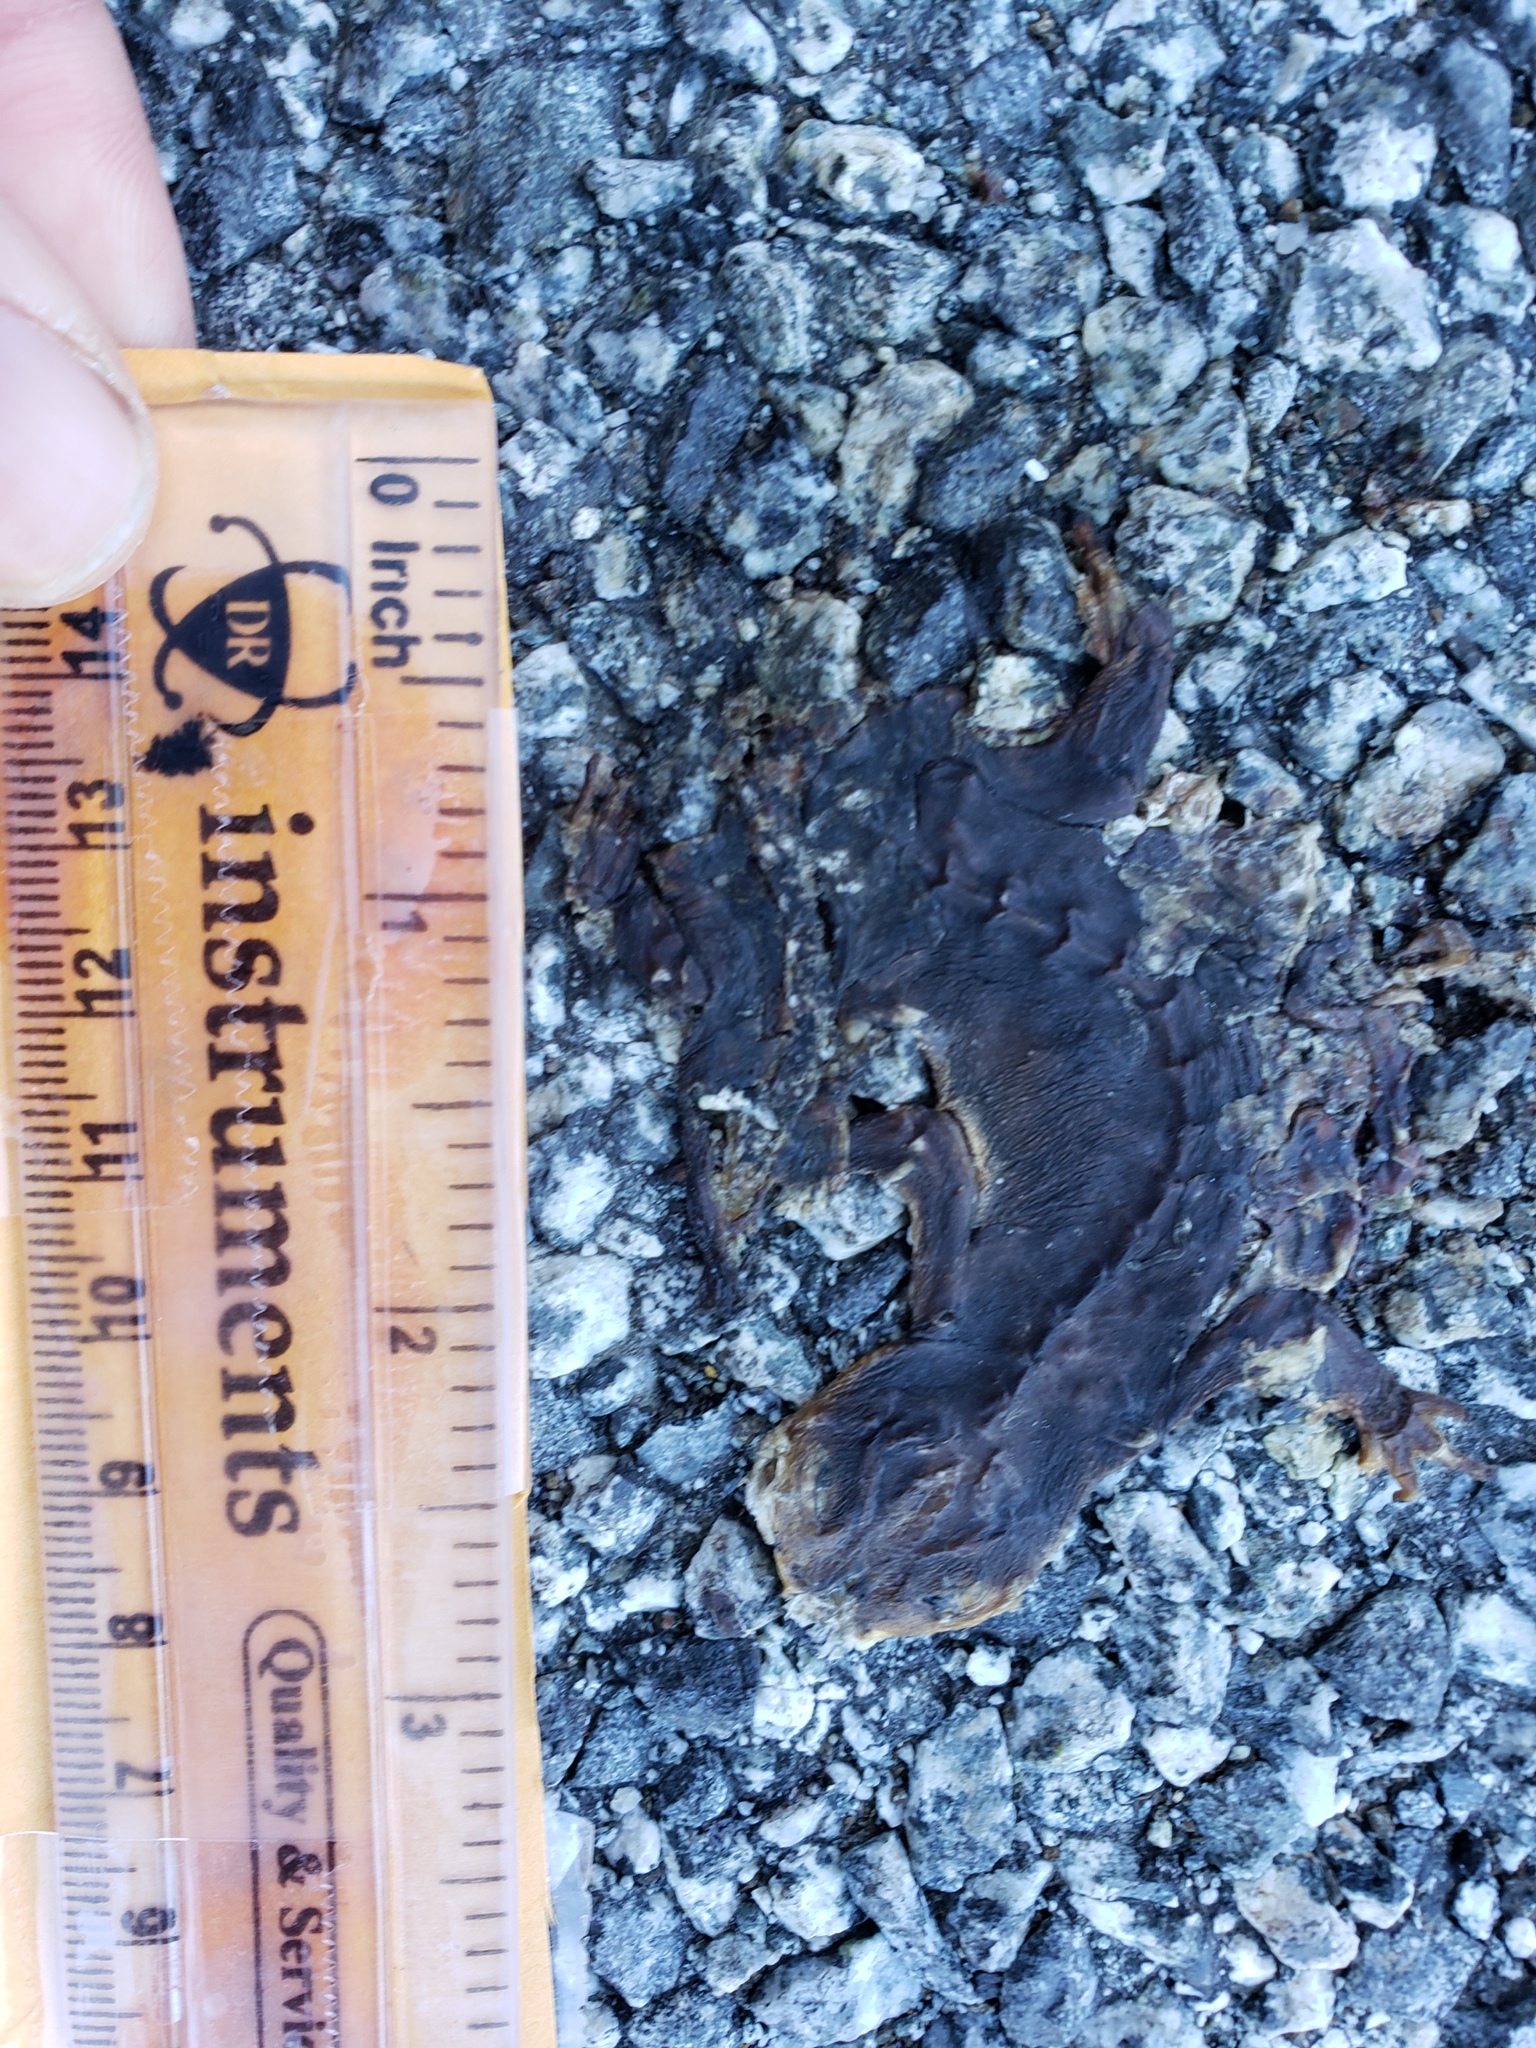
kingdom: Animalia
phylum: Chordata
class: Amphibia
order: Caudata
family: Salamandridae
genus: Taricha
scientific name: Taricha
